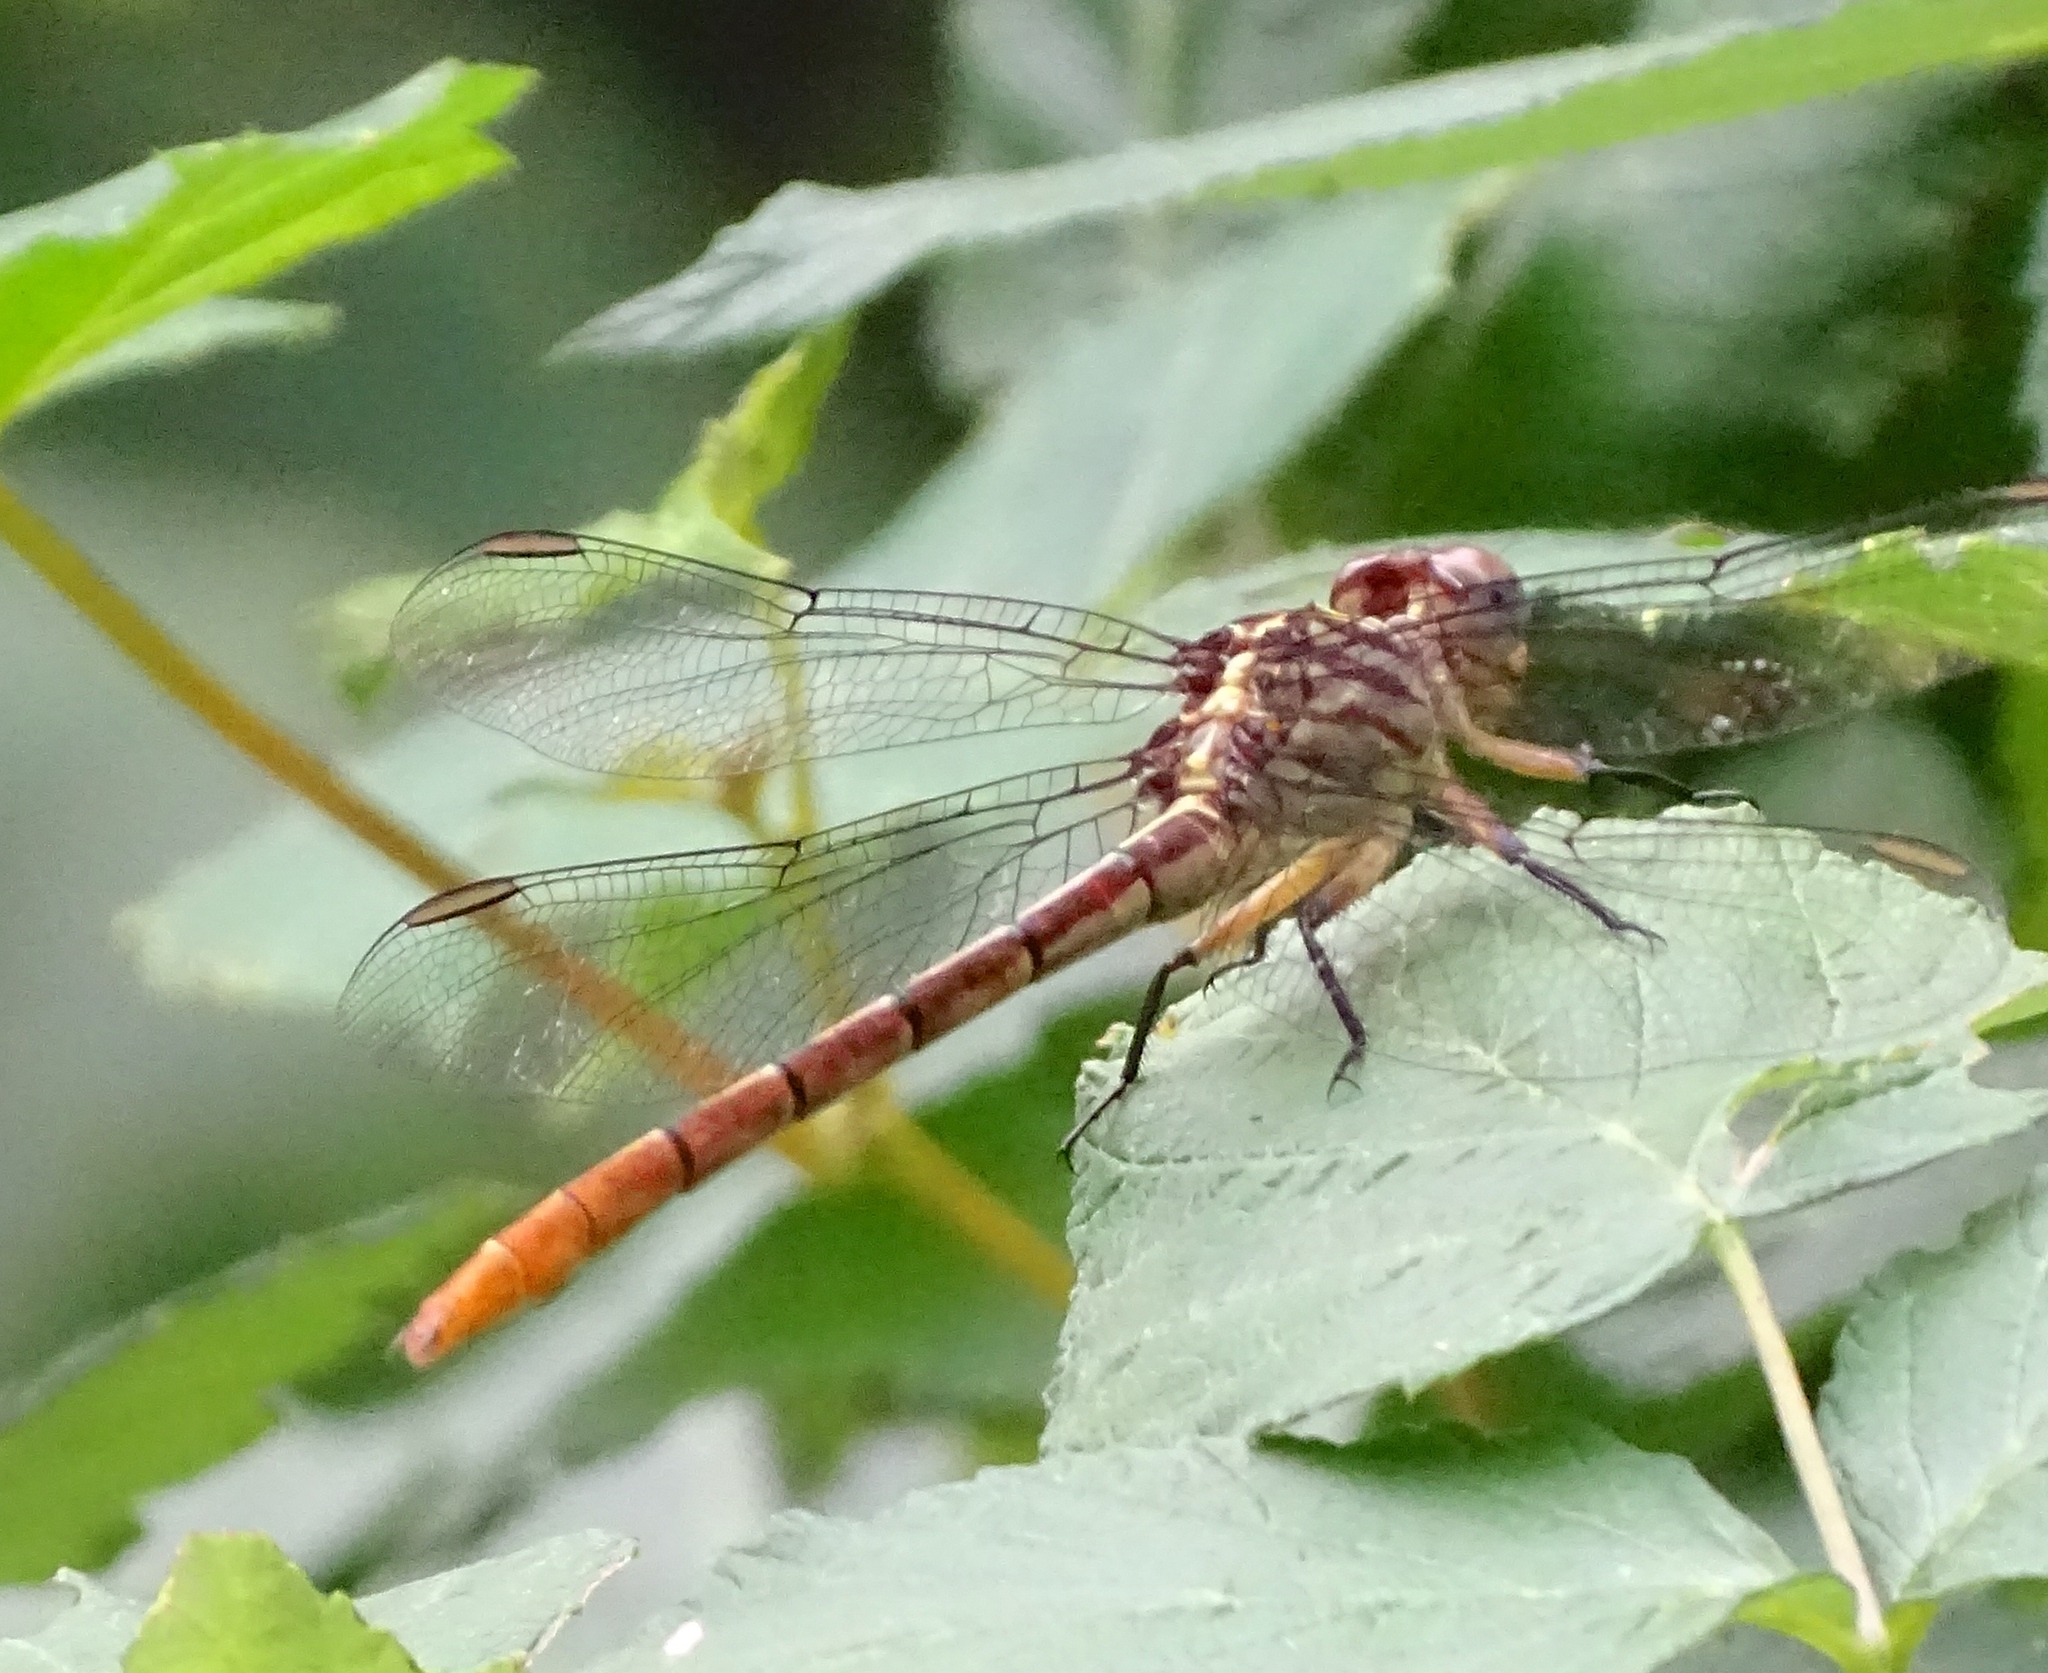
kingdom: Animalia
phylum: Arthropoda
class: Insecta
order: Odonata
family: Gomphidae
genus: Stylurus
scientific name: Stylurus plagiatus
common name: Russet-tipped clubtail
